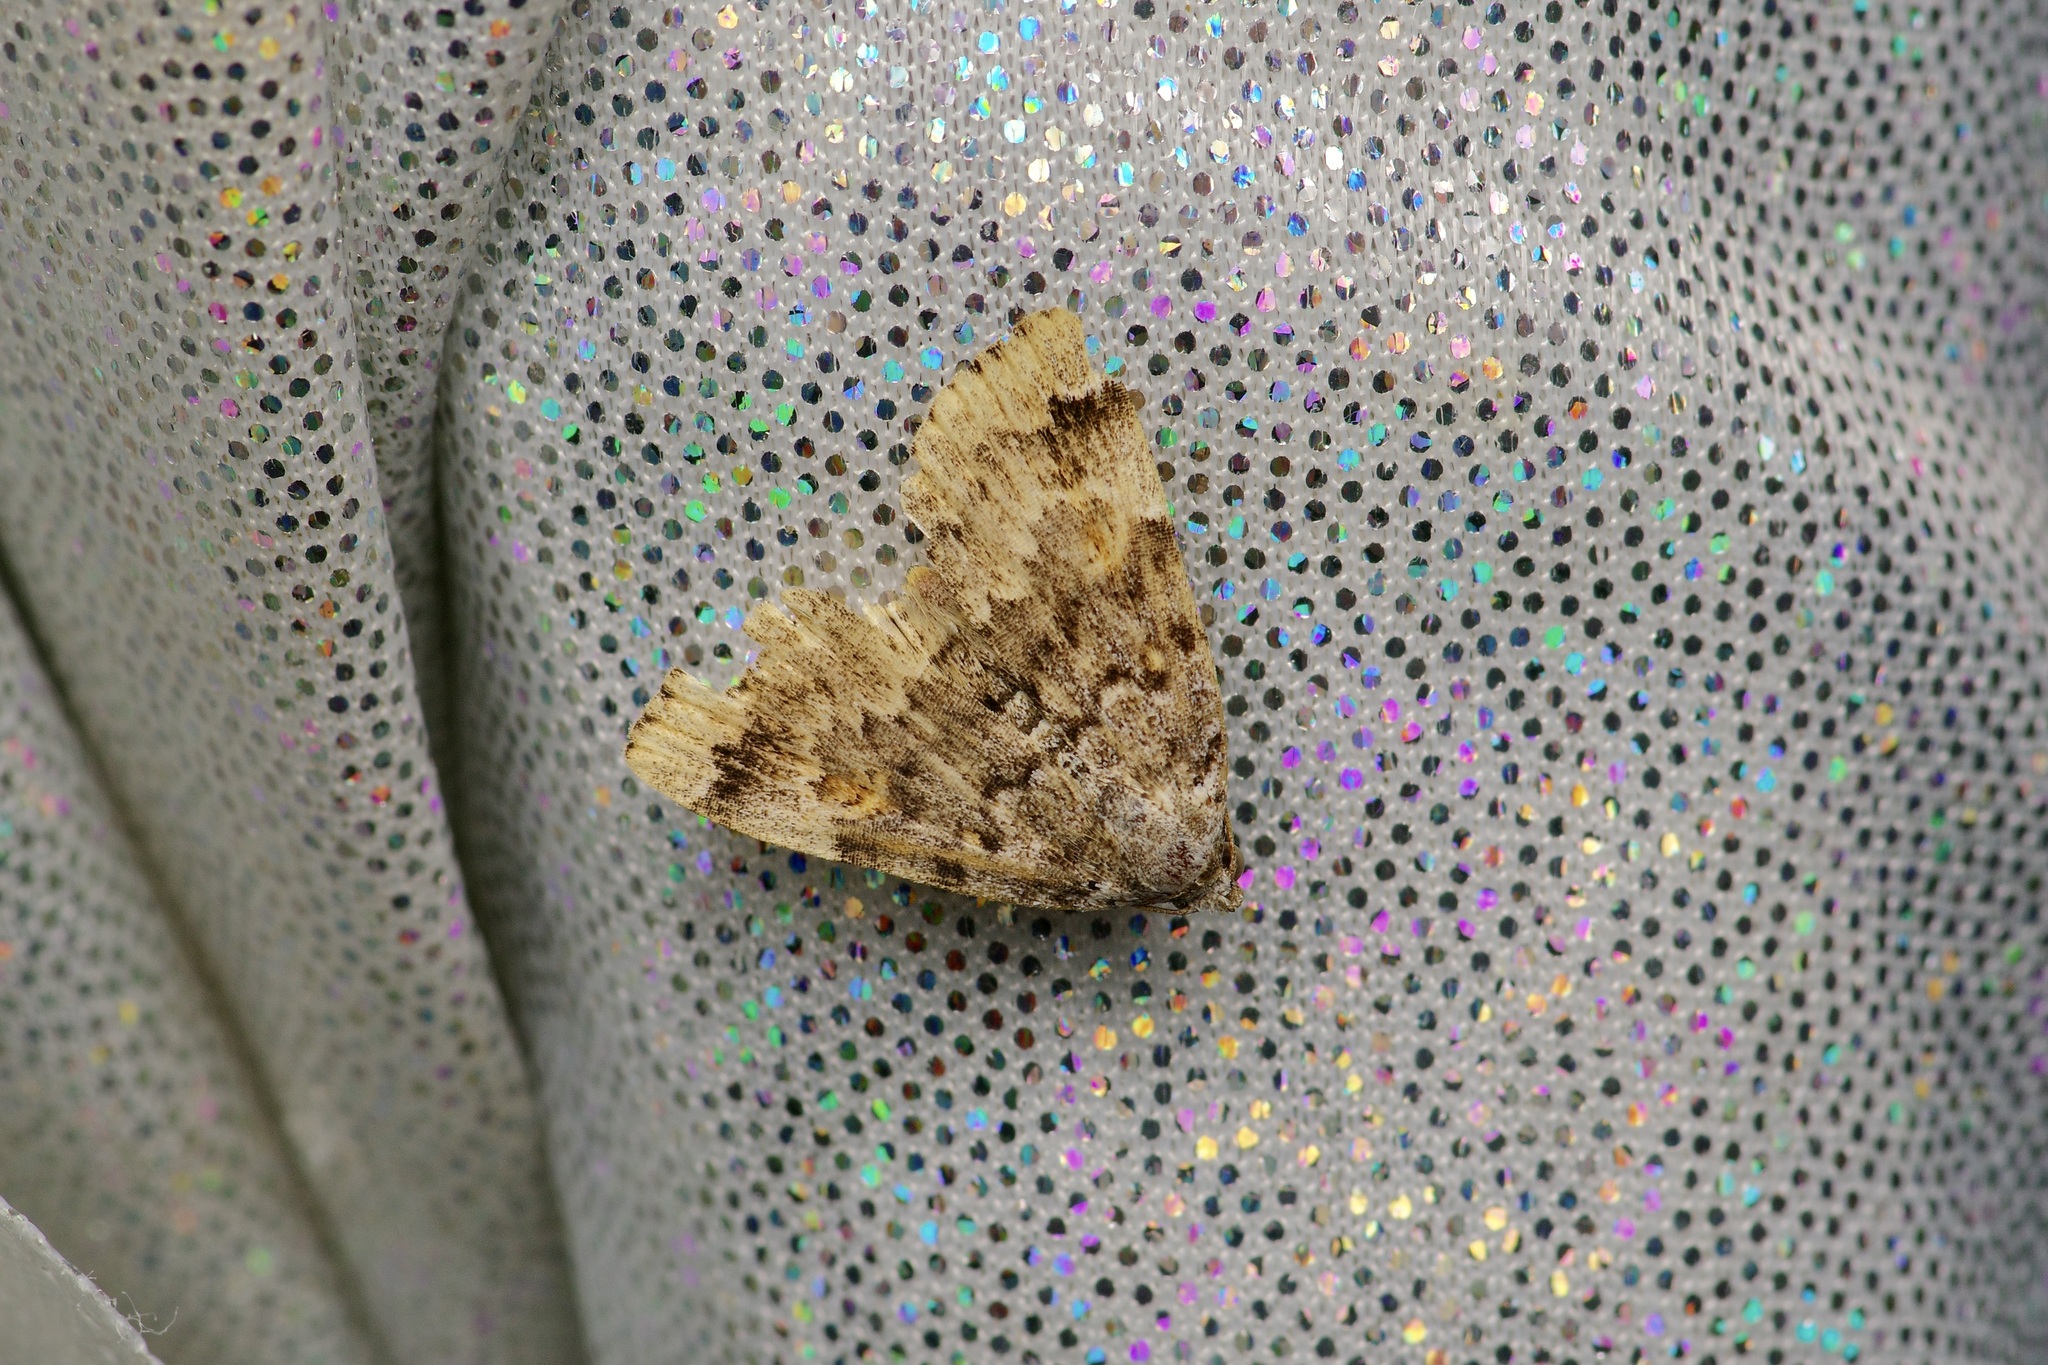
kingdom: Animalia
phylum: Arthropoda
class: Insecta
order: Lepidoptera
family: Erebidae
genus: Idia
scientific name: Idia americalis
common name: American idia moth
